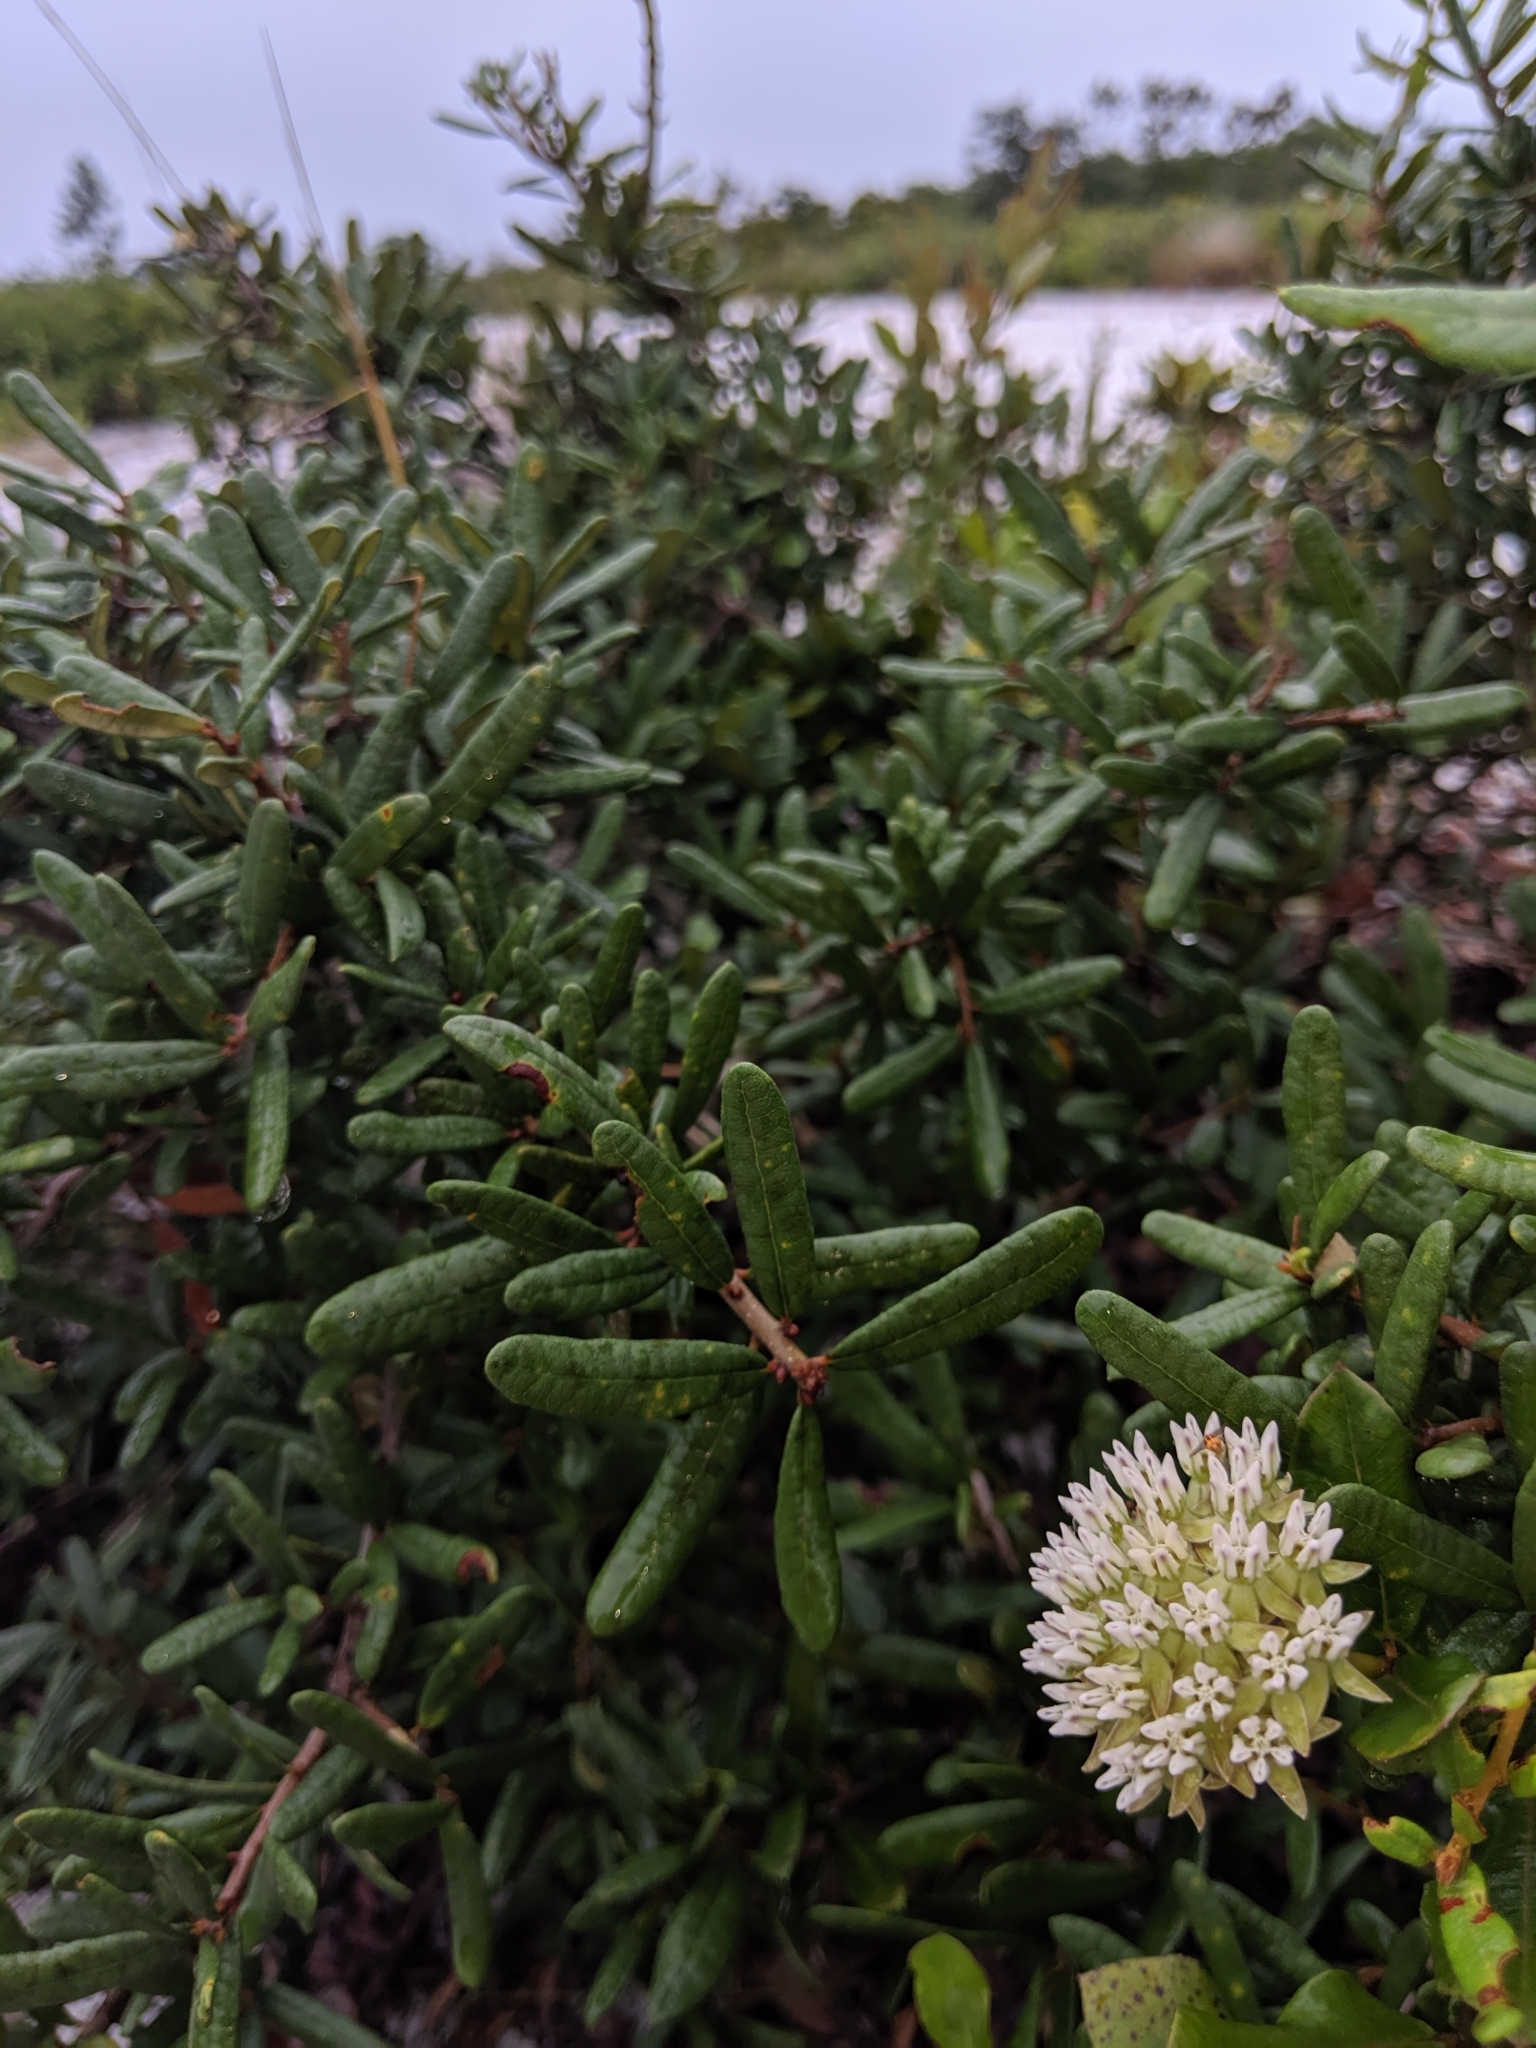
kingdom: Plantae
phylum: Tracheophyta
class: Magnoliopsida
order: Gentianales
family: Apocynaceae
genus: Asclepias
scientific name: Asclepias curtissii
